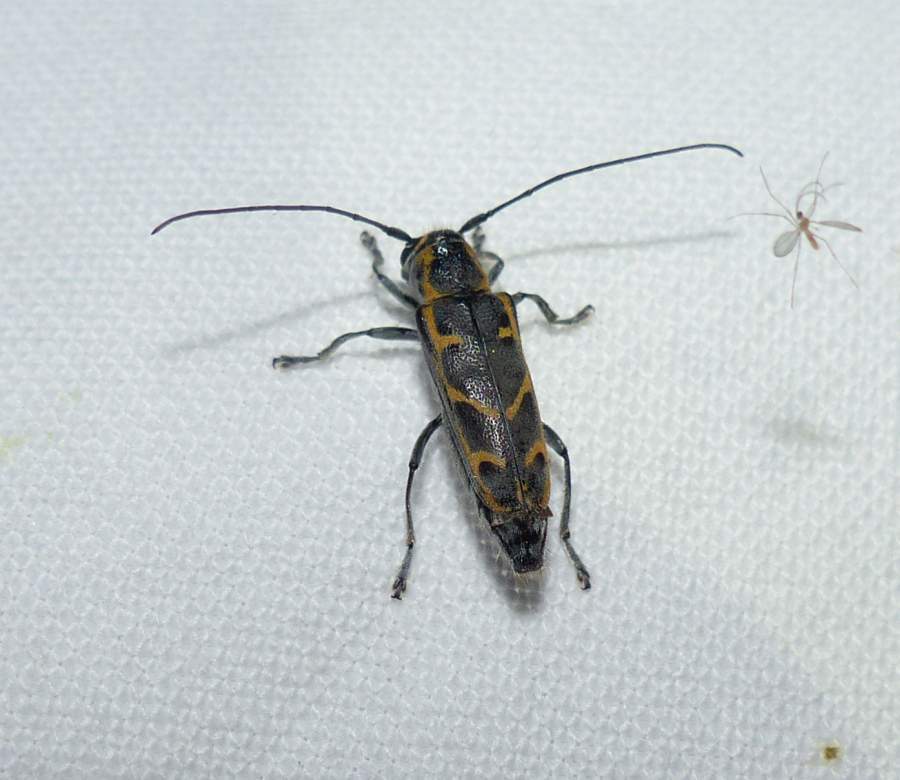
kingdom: Animalia
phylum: Arthropoda
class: Insecta
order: Coleoptera
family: Cerambycidae
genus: Saperda
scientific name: Saperda tridentata
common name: Elm borer
